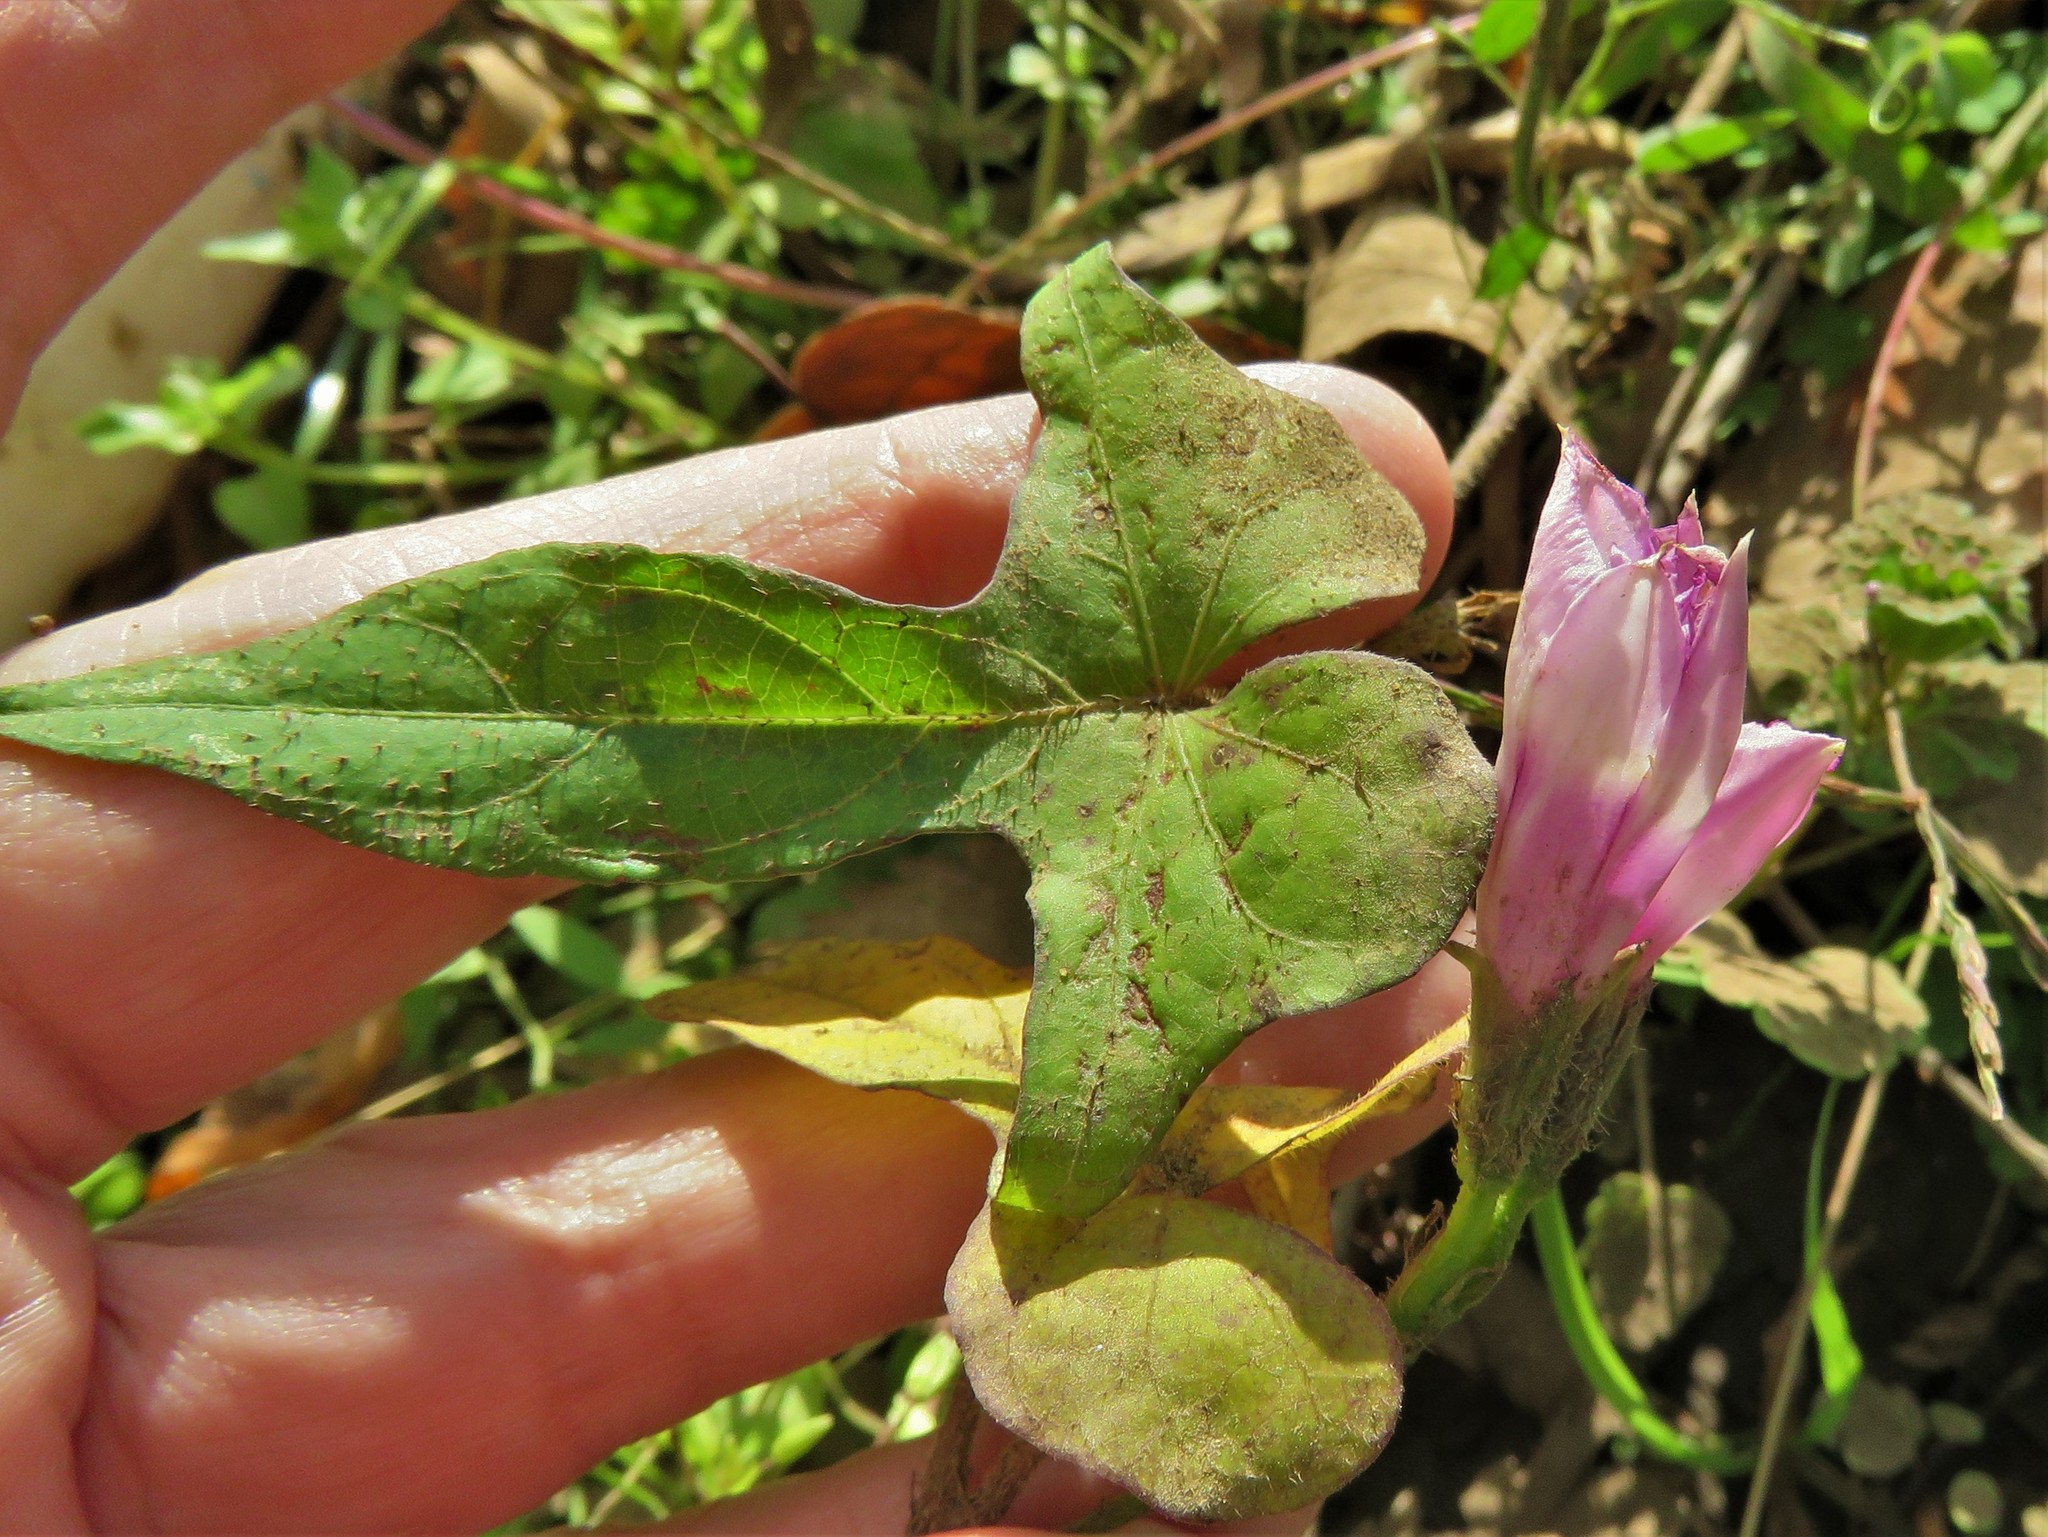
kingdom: Plantae
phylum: Tracheophyta
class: Magnoliopsida
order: Solanales
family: Convolvulaceae
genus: Ipomoea
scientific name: Ipomoea cordatotriloba
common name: Cotton morning glory
